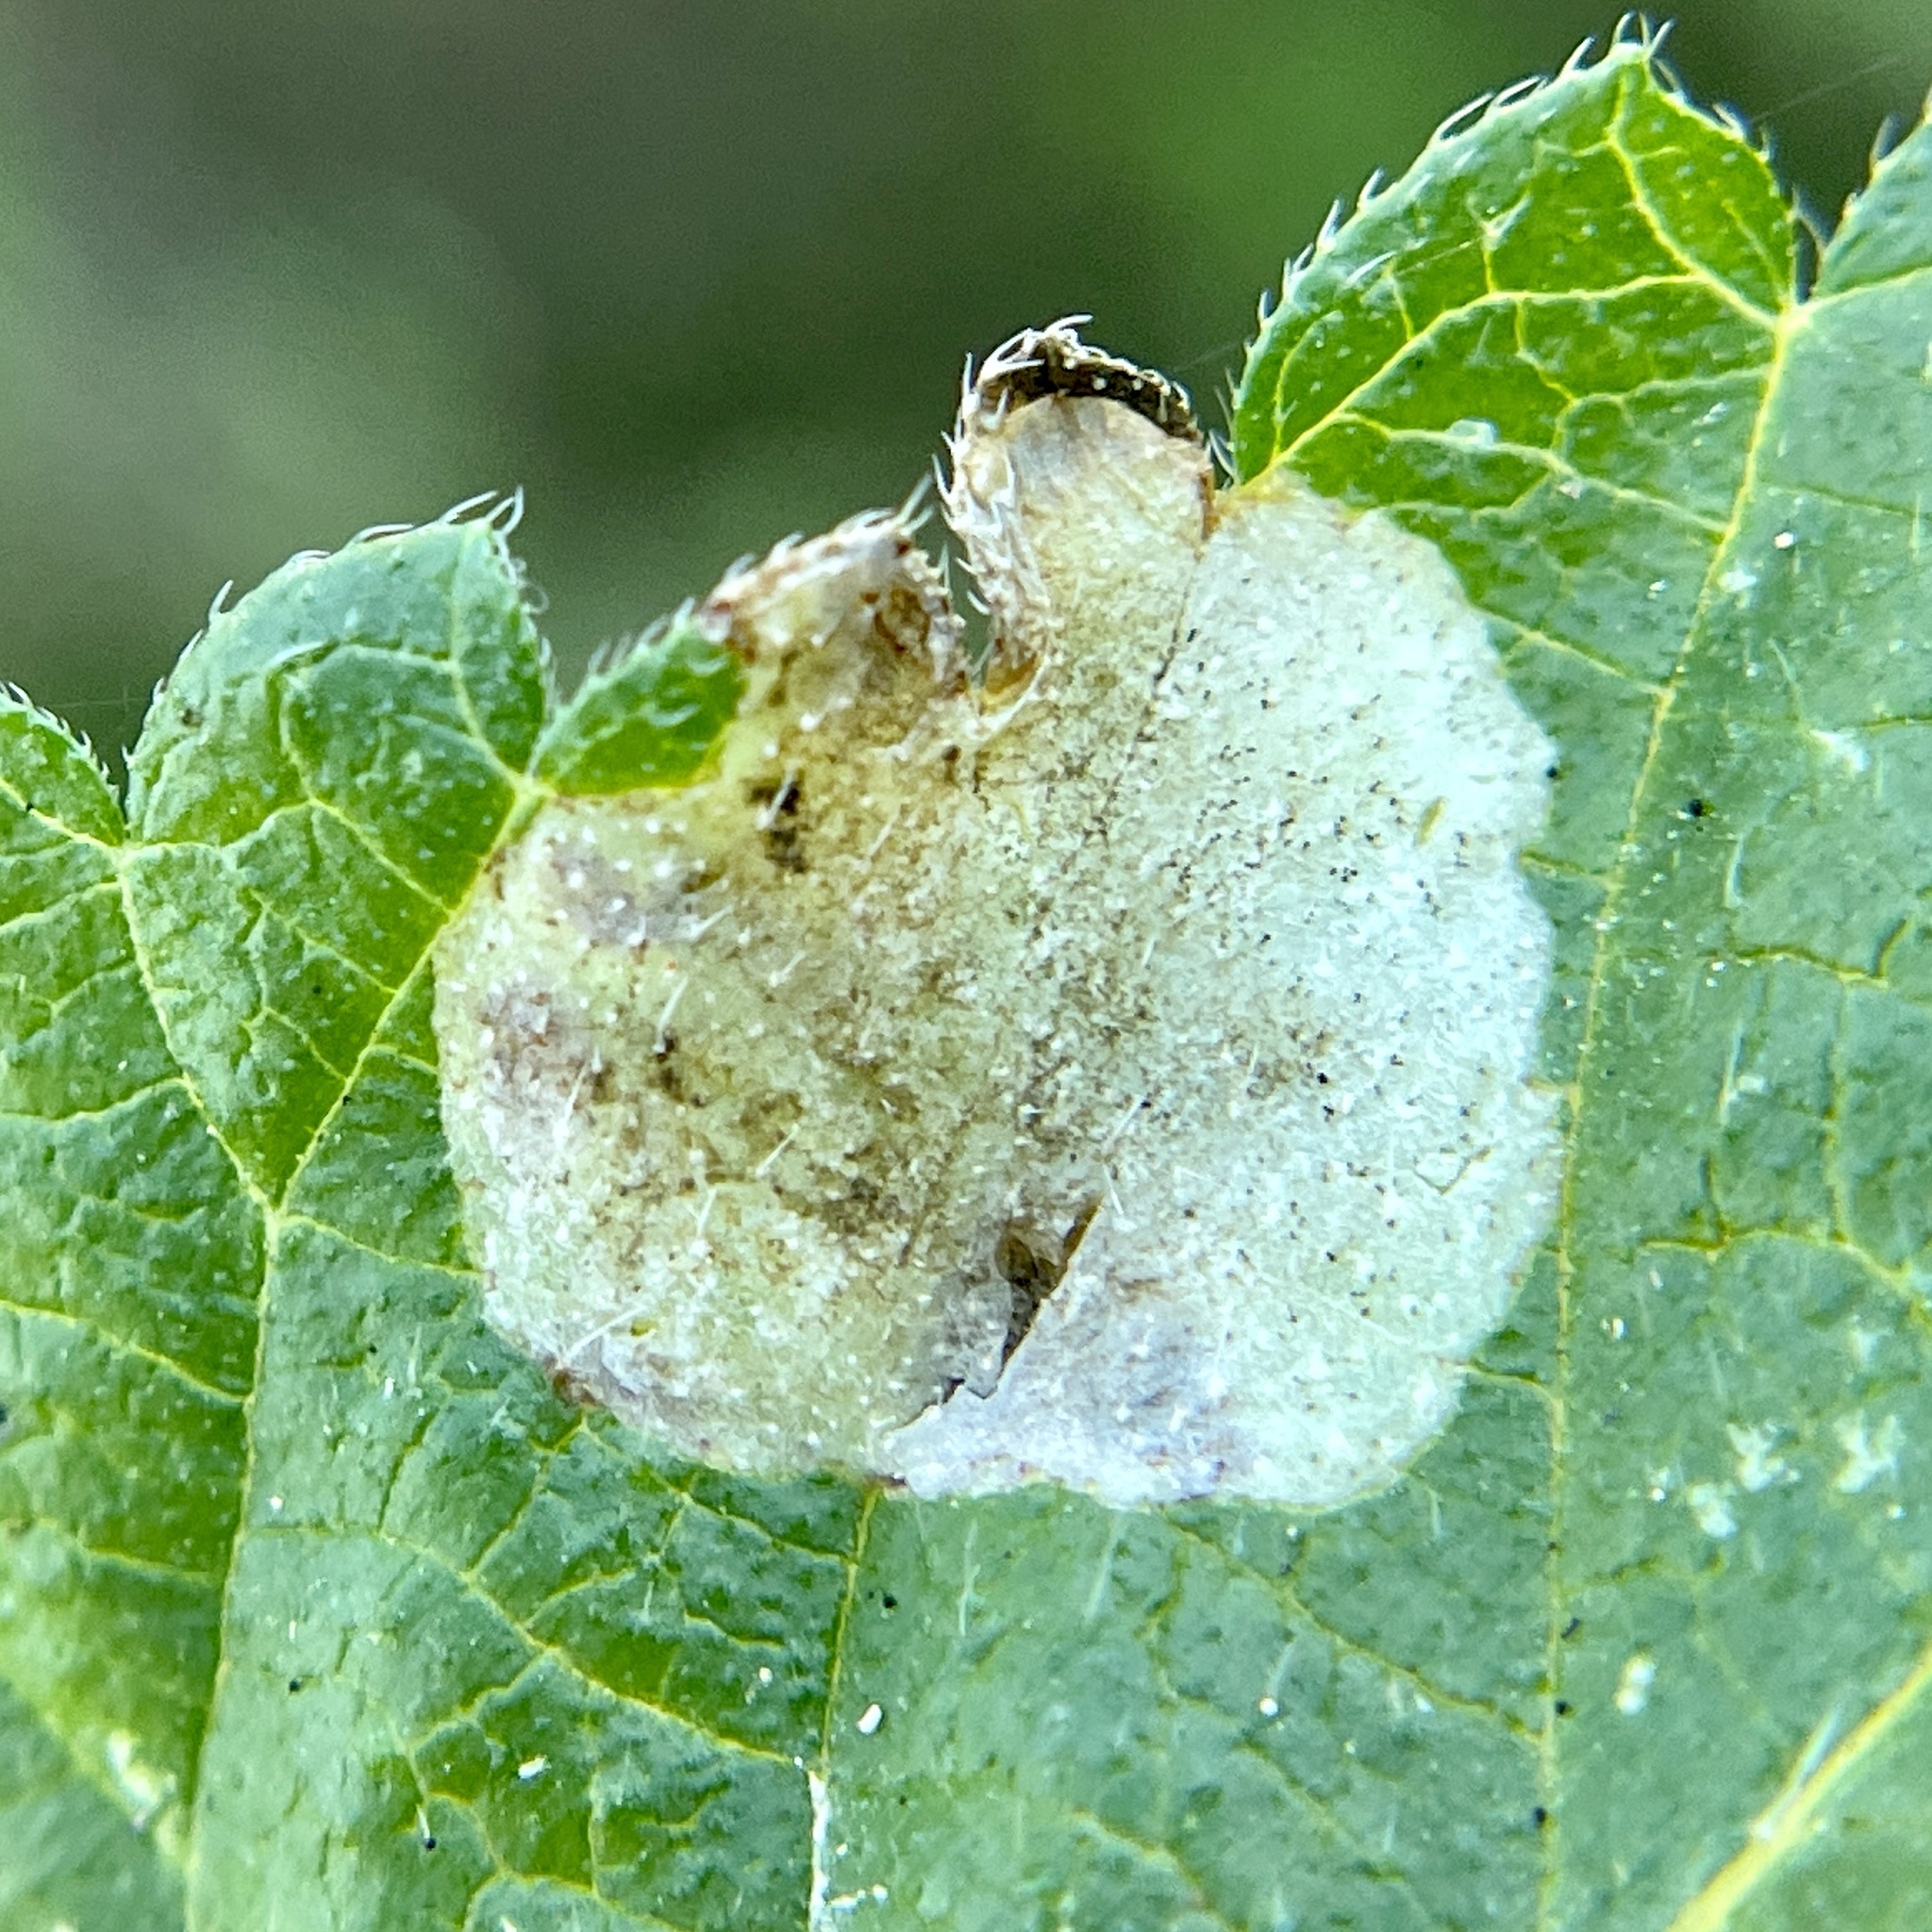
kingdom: Animalia
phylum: Arthropoda
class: Insecta
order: Diptera
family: Agromyzidae
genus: Calycomyza
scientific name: Calycomyza lantanae
